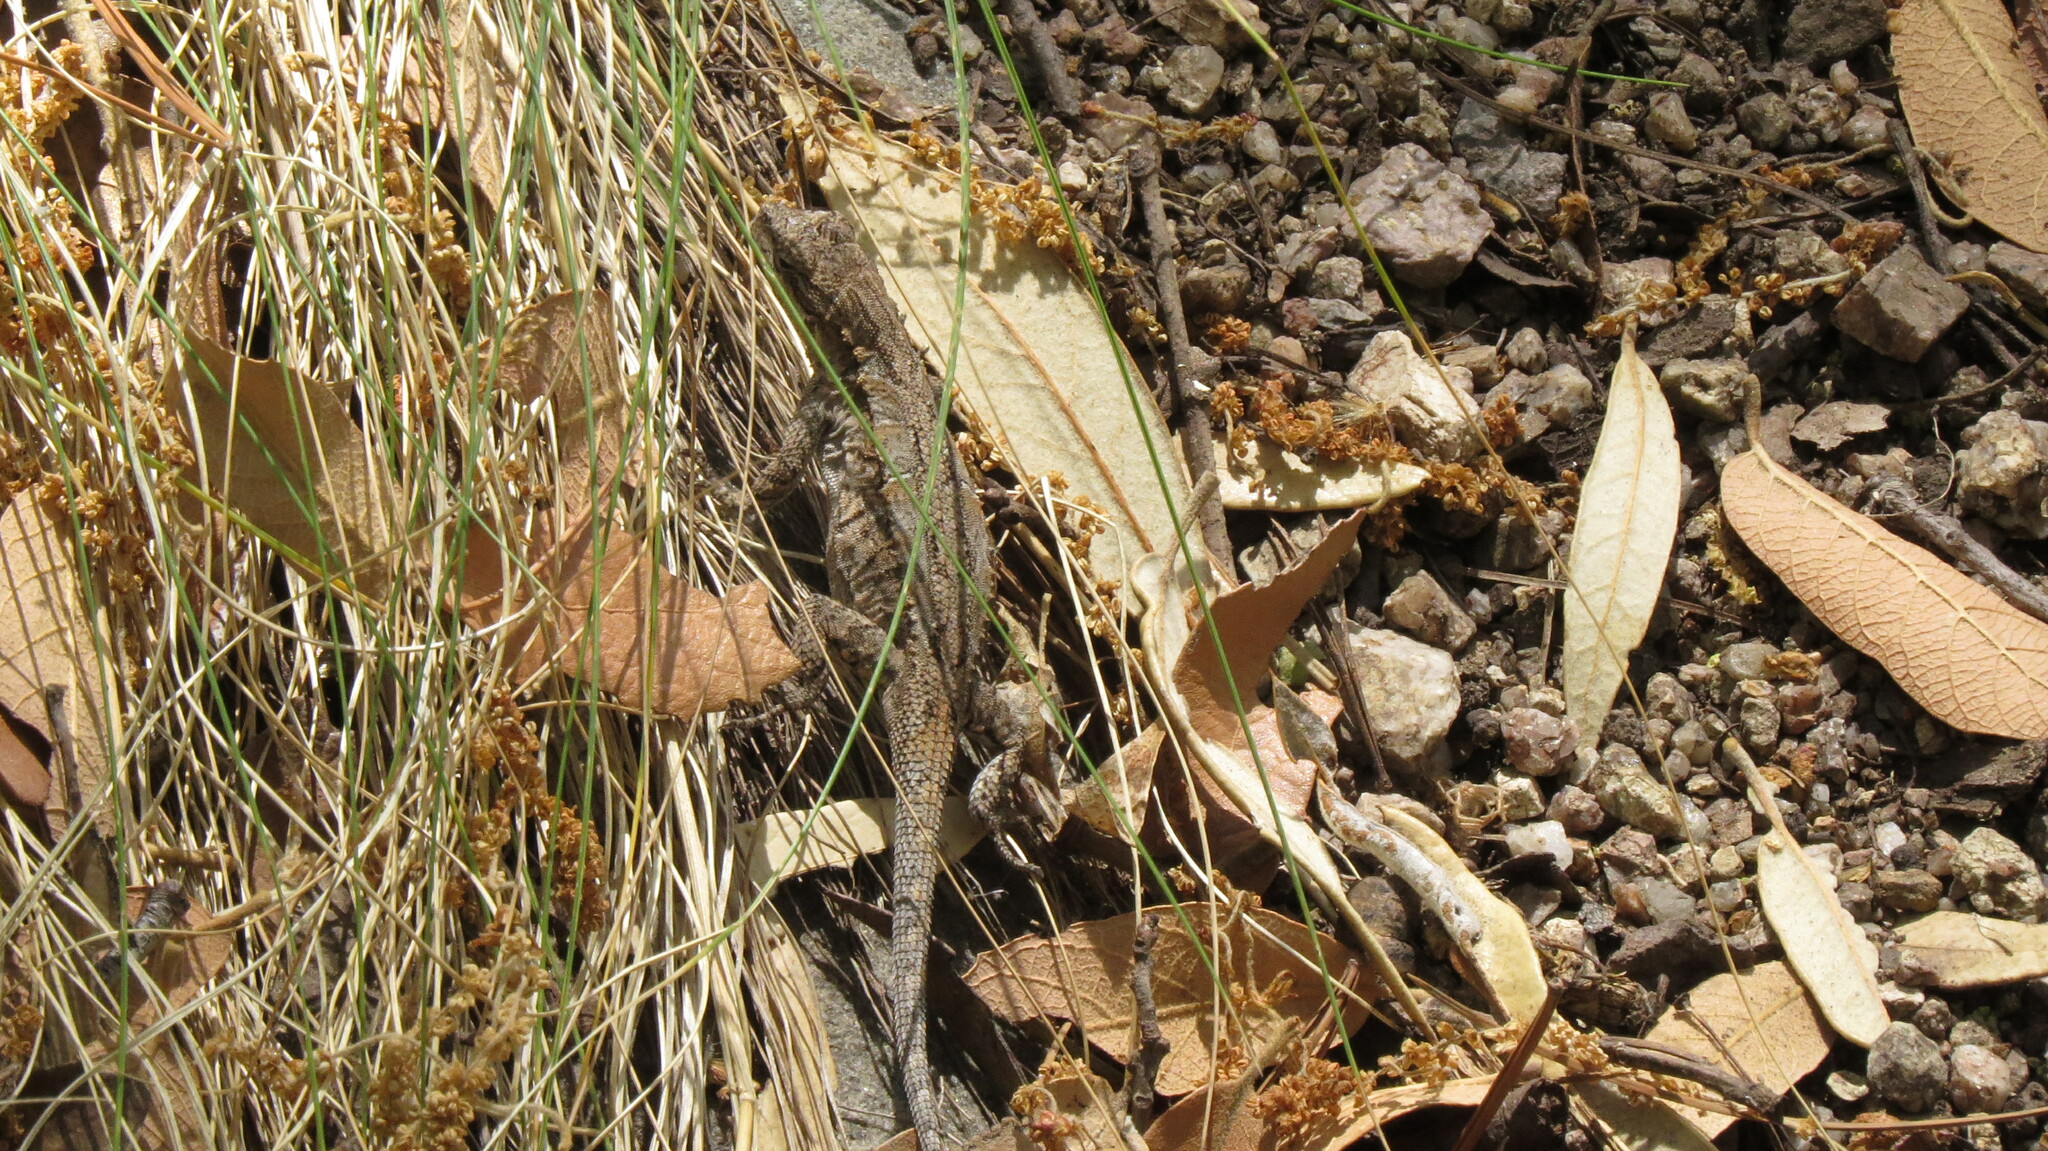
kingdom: Animalia
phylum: Chordata
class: Squamata
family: Phrynosomatidae
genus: Urosaurus
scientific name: Urosaurus ornatus
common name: Ornate tree lizard
